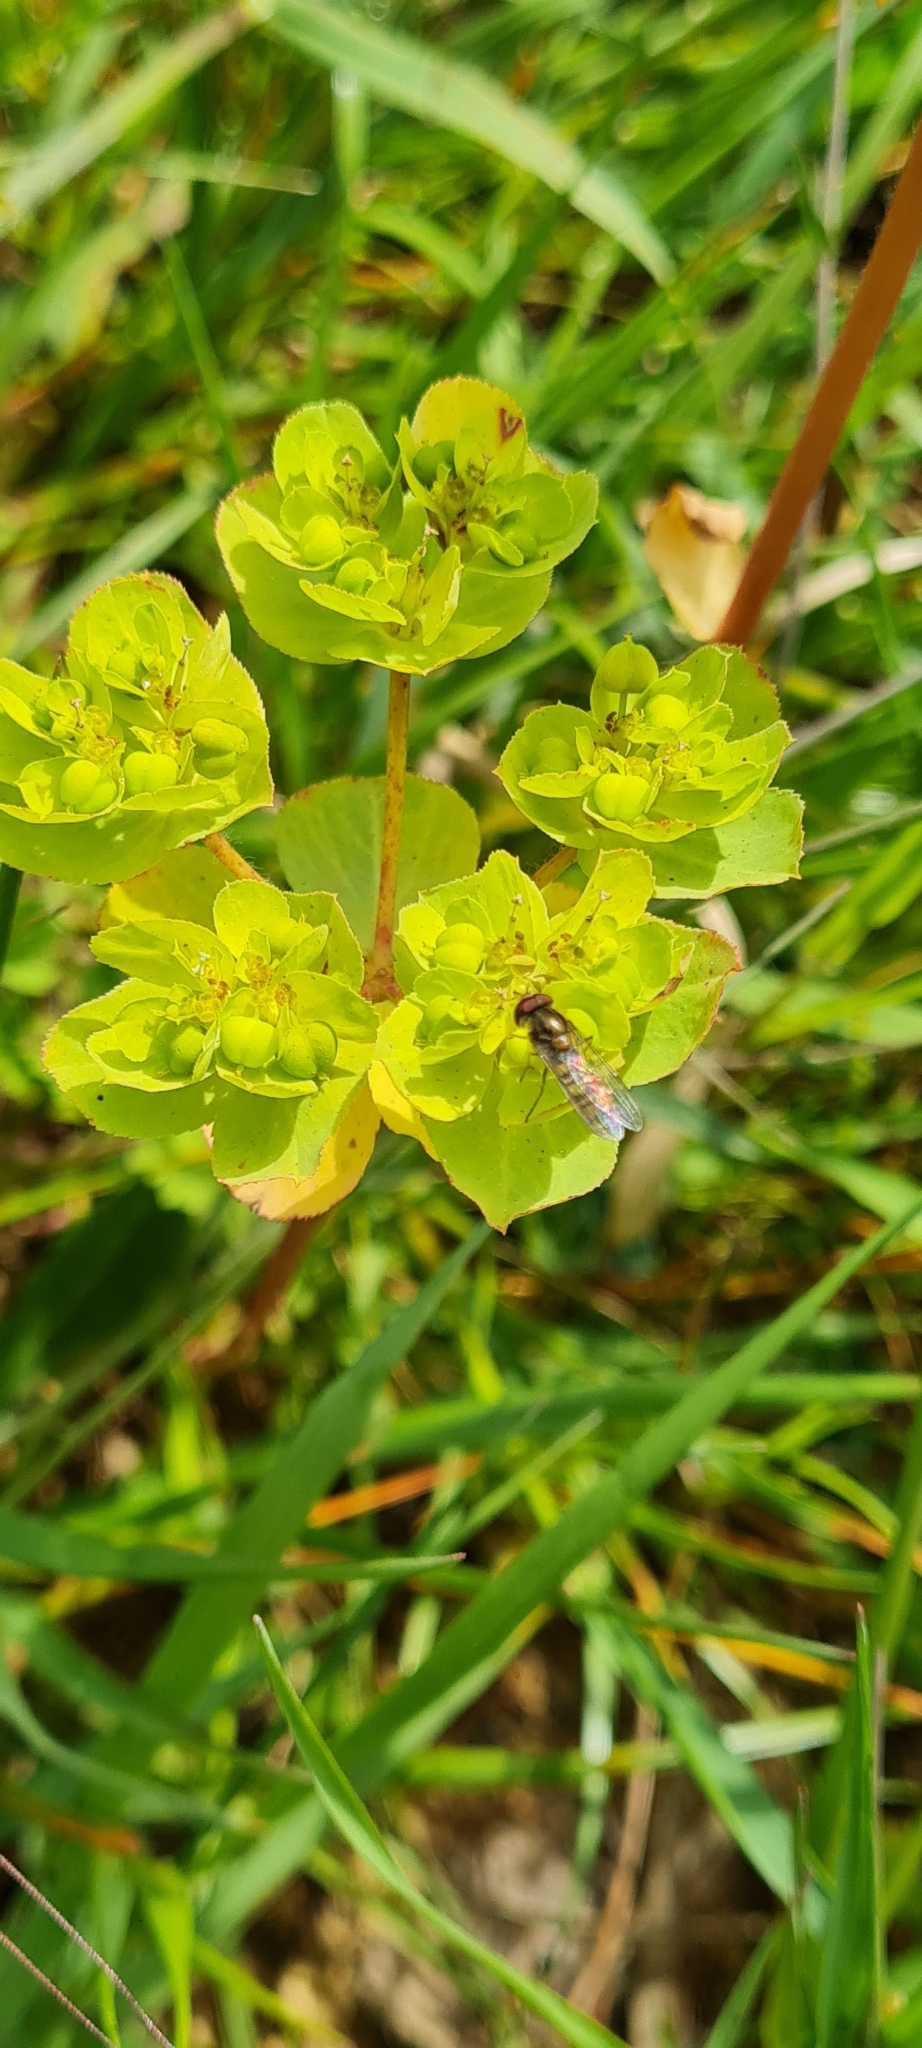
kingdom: Animalia
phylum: Arthropoda
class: Insecta
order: Diptera
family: Syrphidae
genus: Episyrphus
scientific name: Episyrphus balteatus
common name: Marmalade hoverfly
